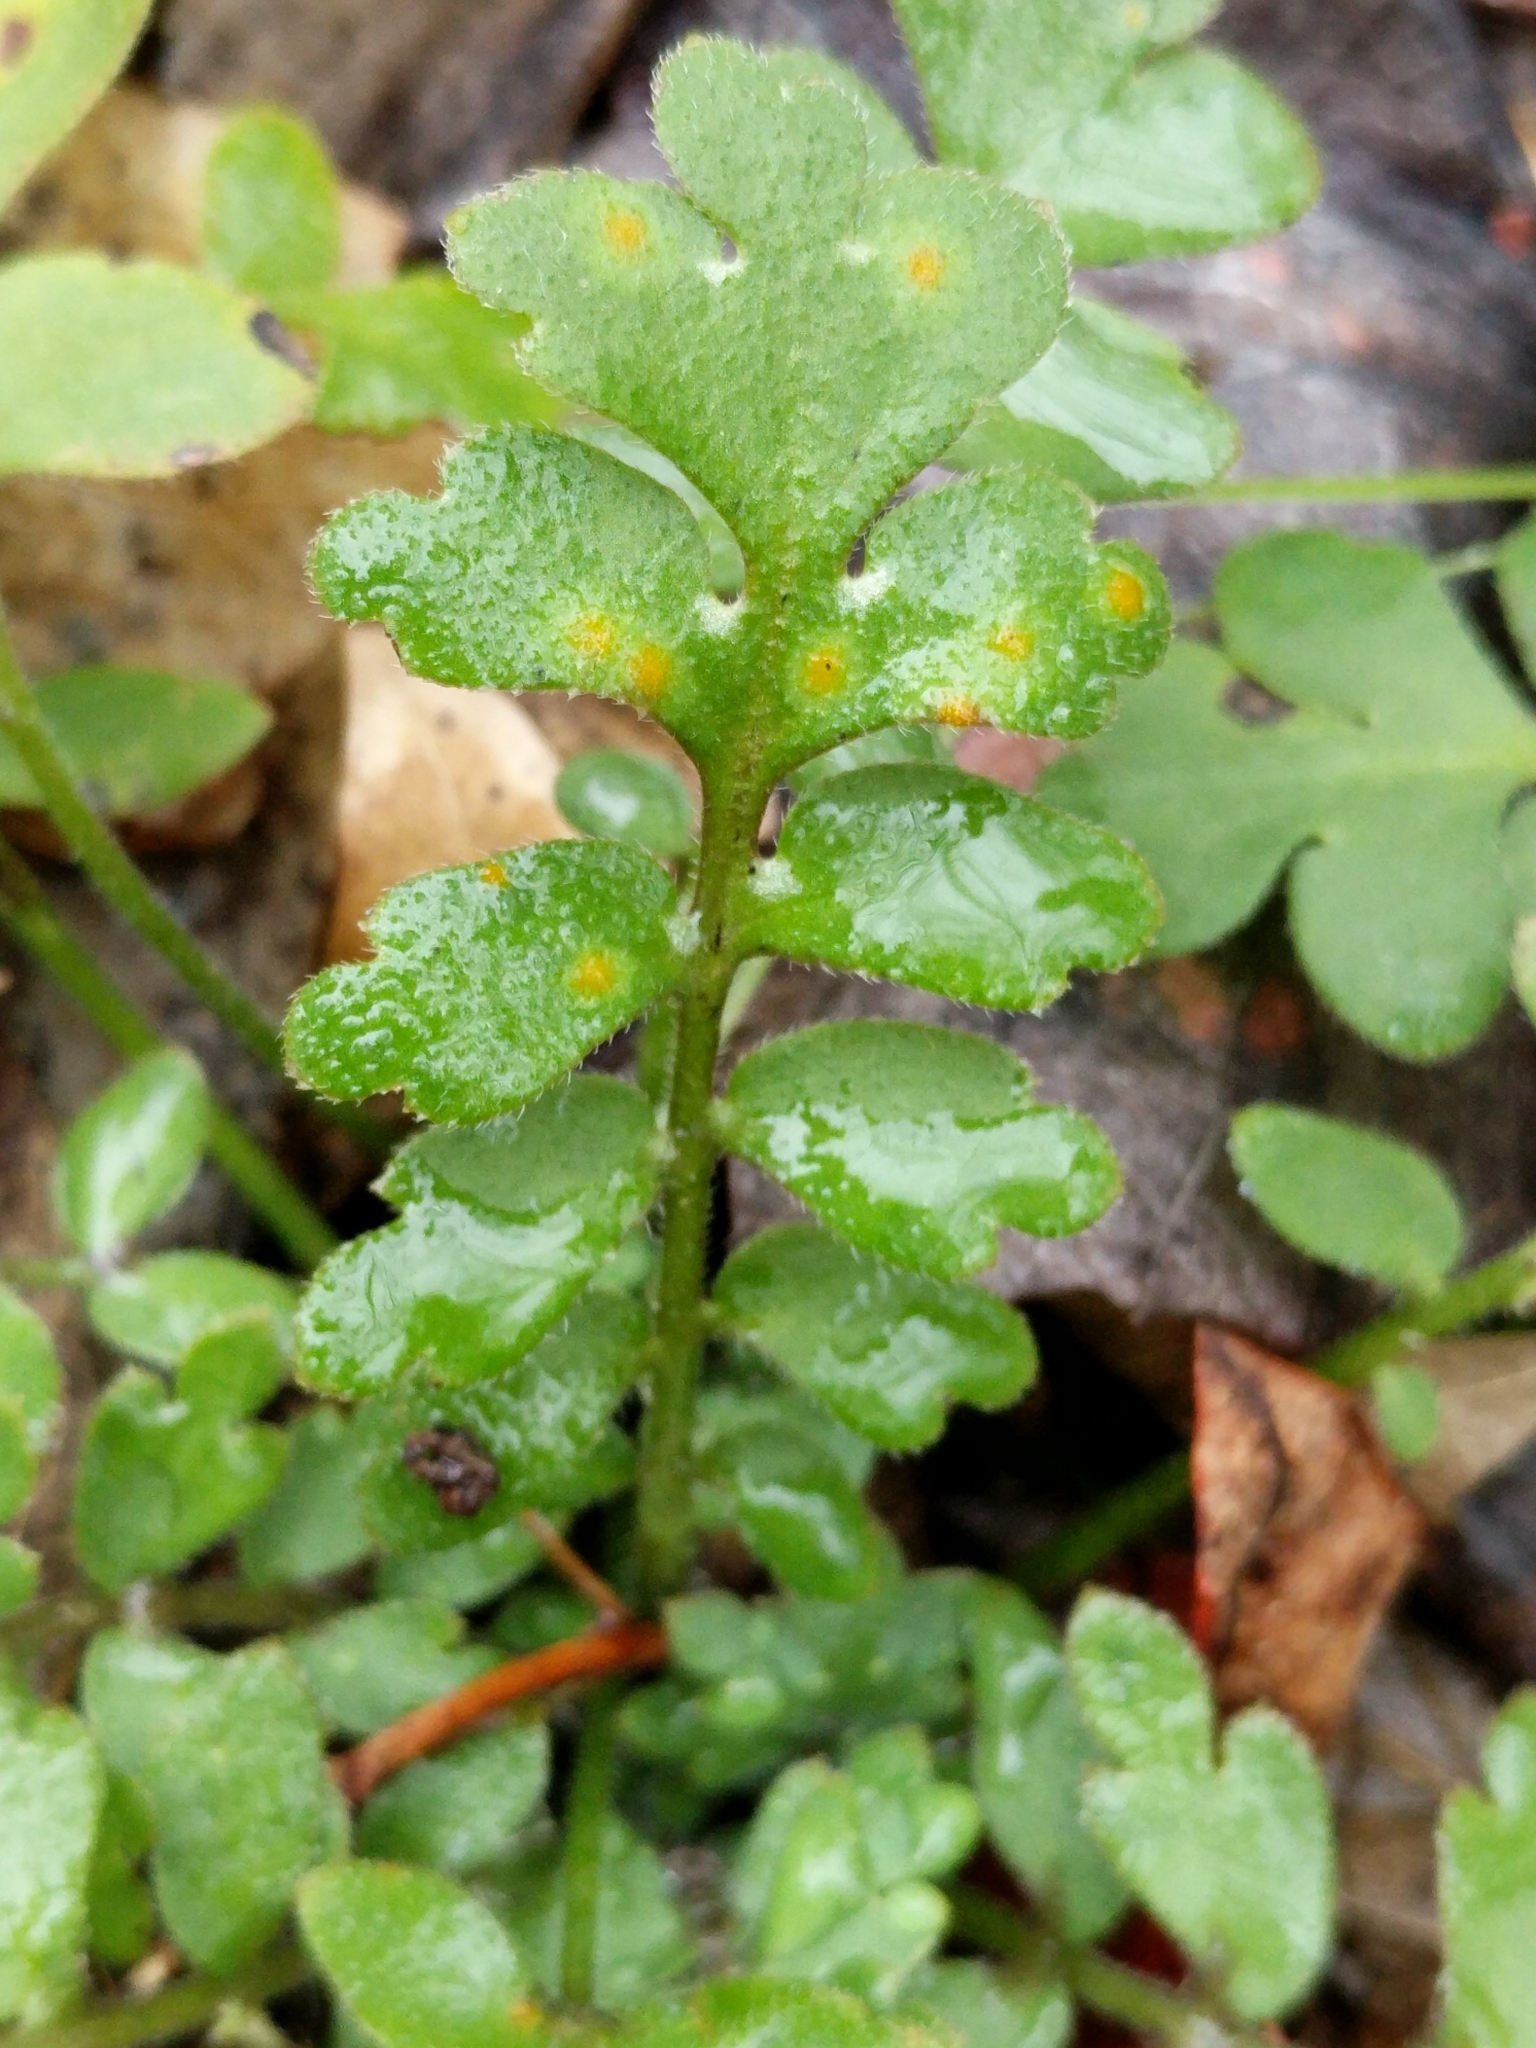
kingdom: Plantae
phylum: Tracheophyta
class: Magnoliopsida
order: Boraginales
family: Hydrophyllaceae
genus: Nemophila
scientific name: Nemophila phacelioides
